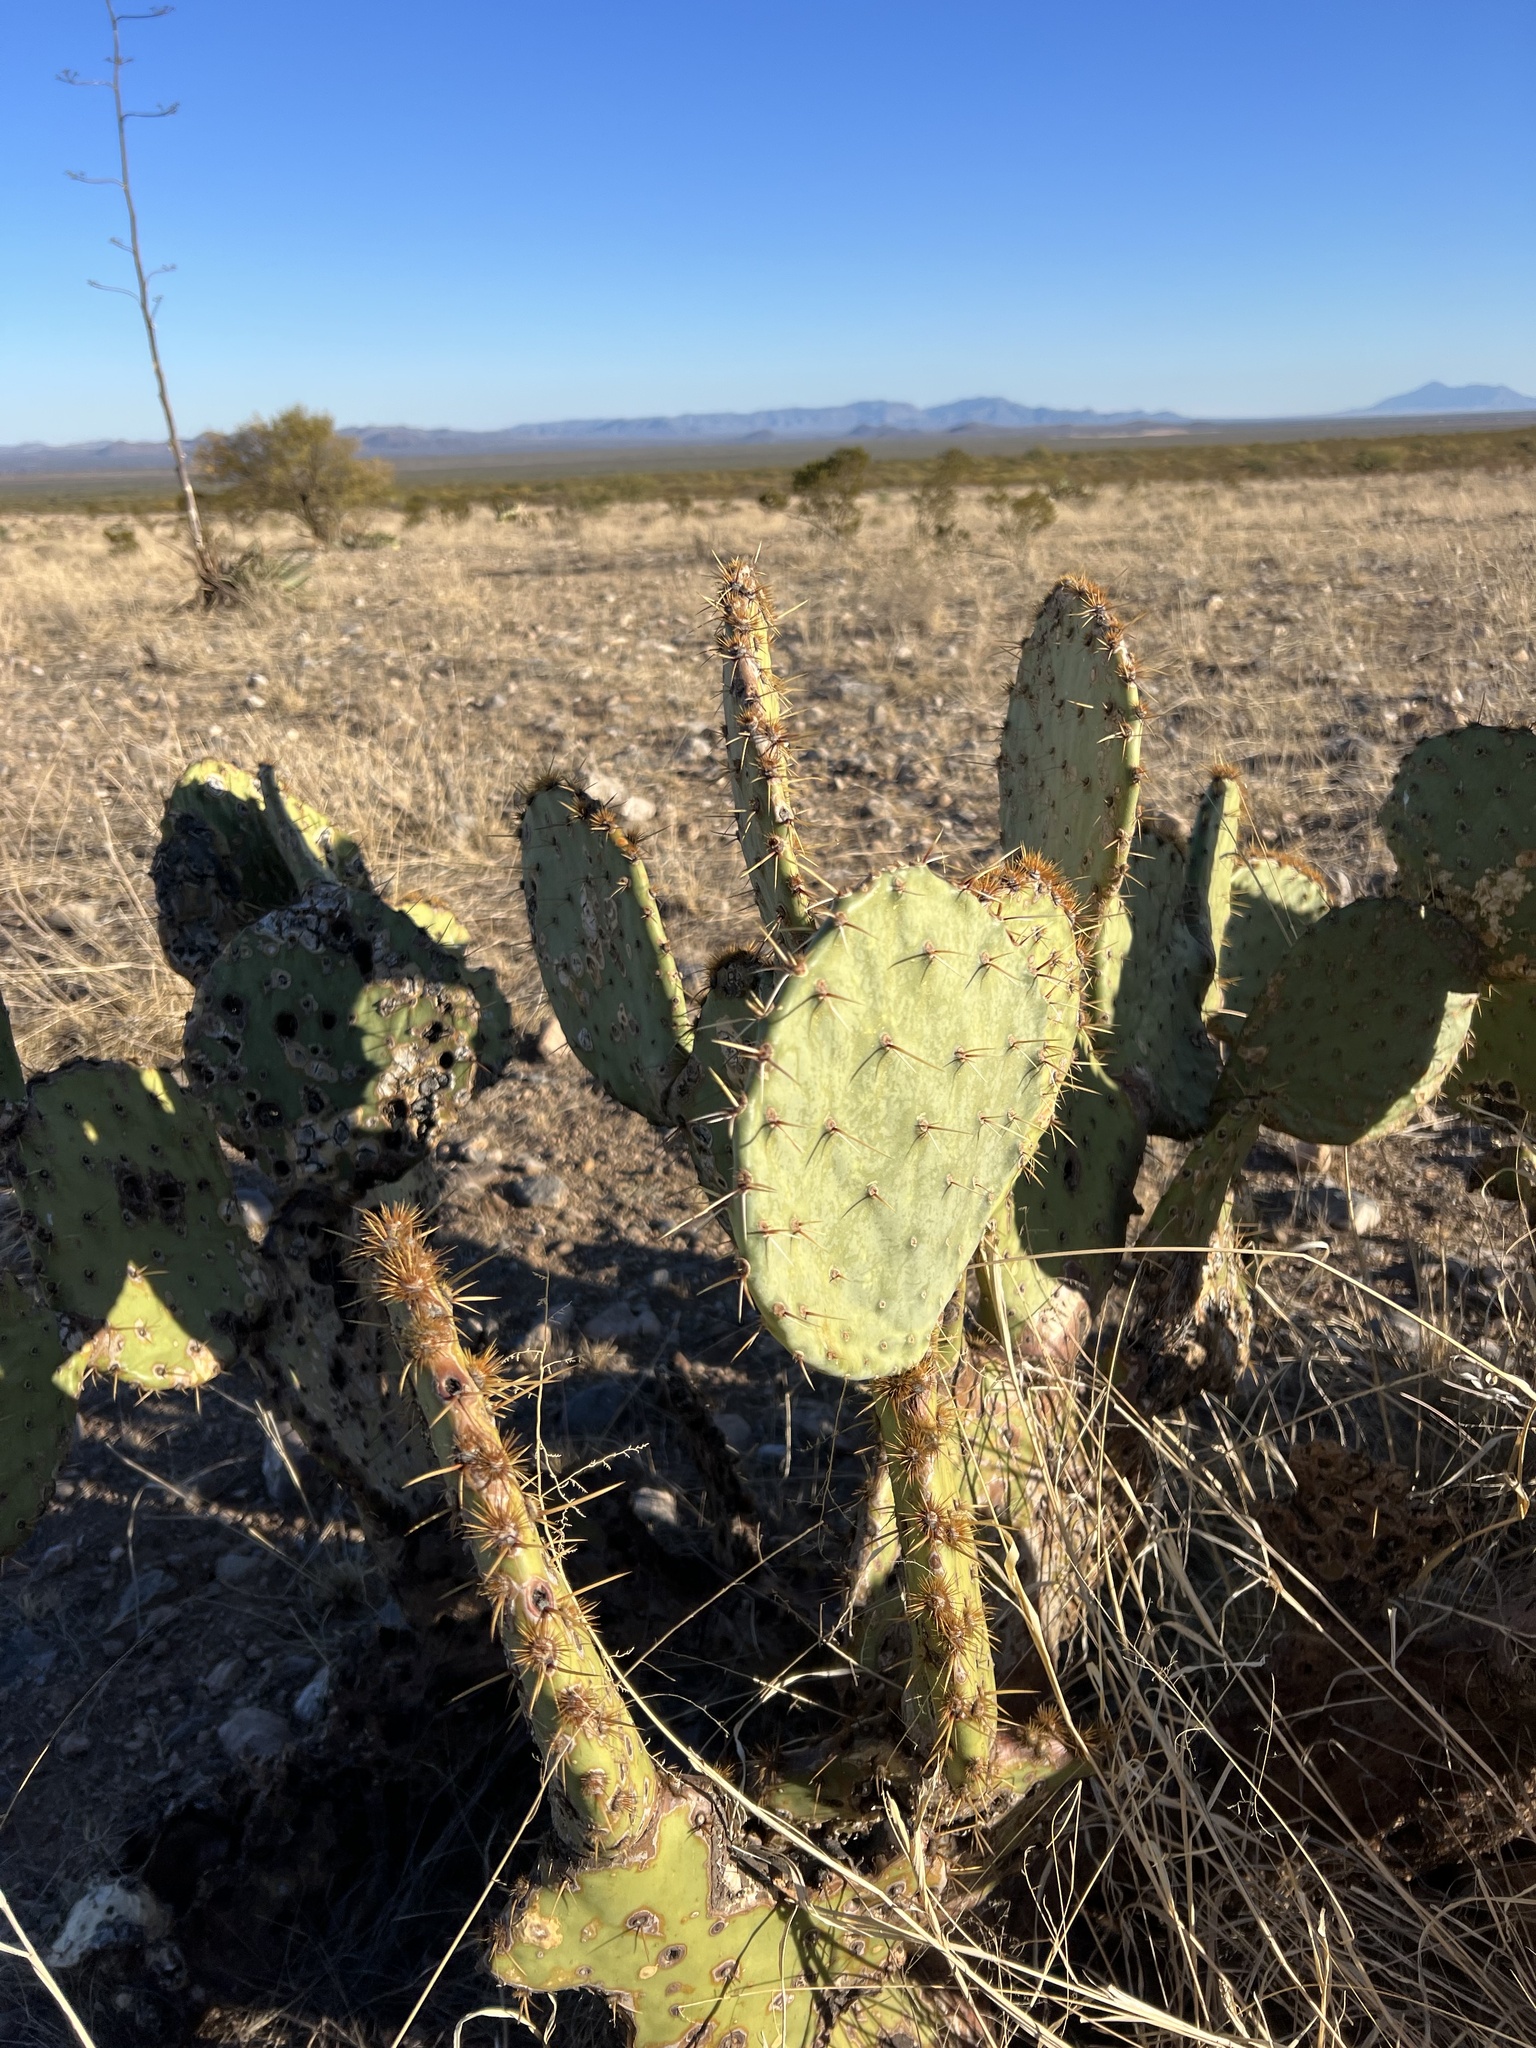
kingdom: Plantae
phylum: Tracheophyta
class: Magnoliopsida
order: Caryophyllales
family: Cactaceae
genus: Opuntia
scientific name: Opuntia engelmannii
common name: Cactus-apple
